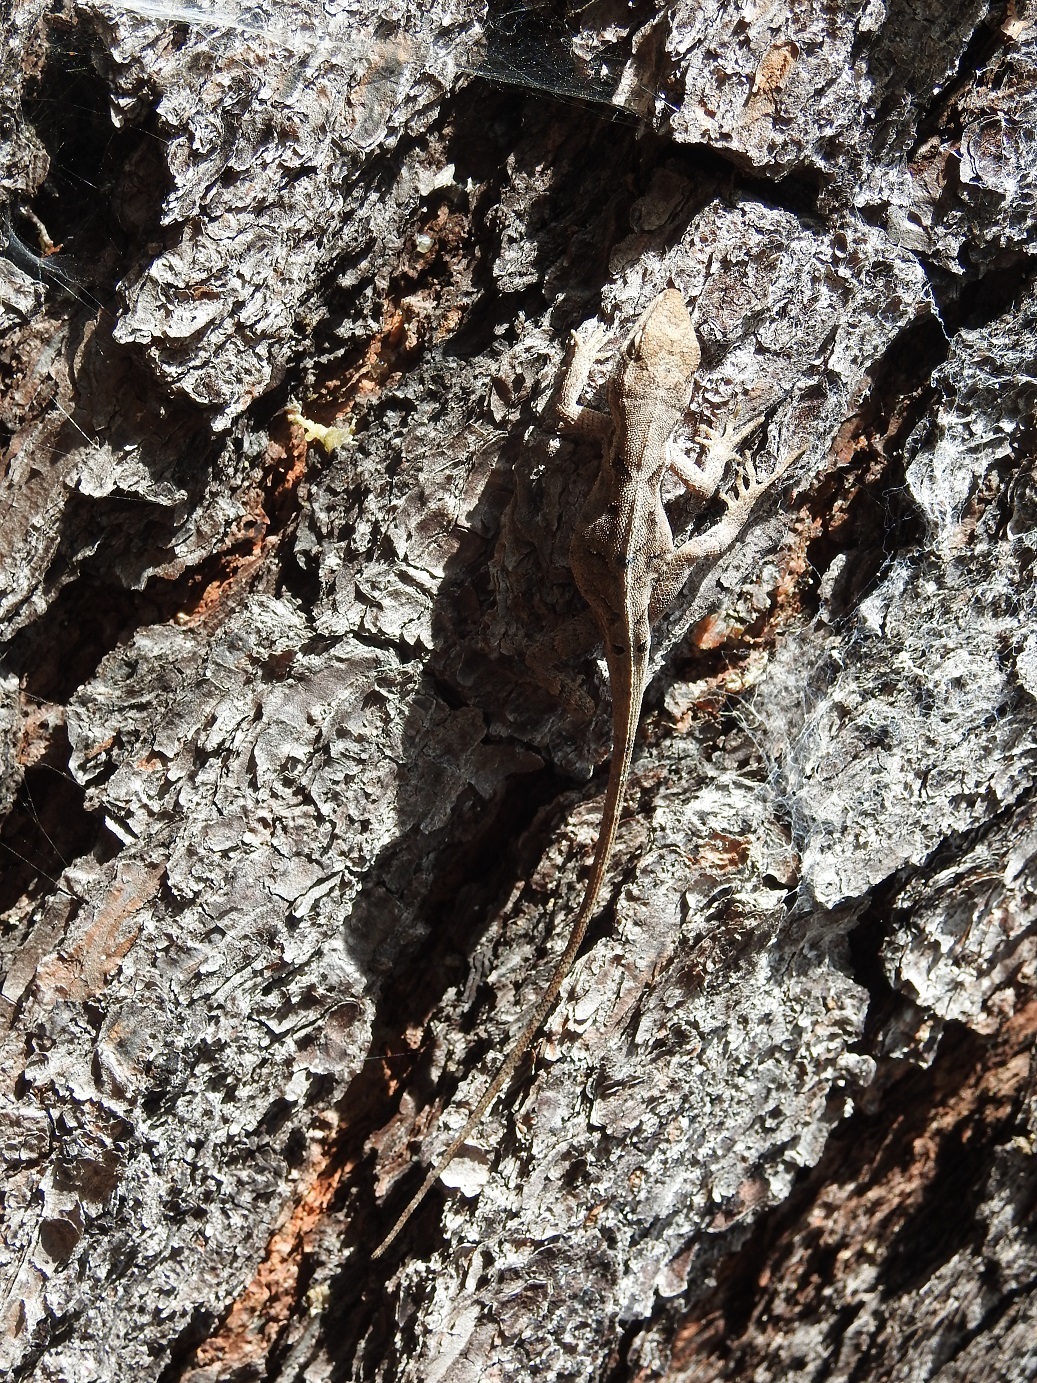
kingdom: Animalia
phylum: Chordata
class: Squamata
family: Dactyloidae
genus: Anolis
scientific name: Anolis anisolepis
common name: Chiapas ornate anole
